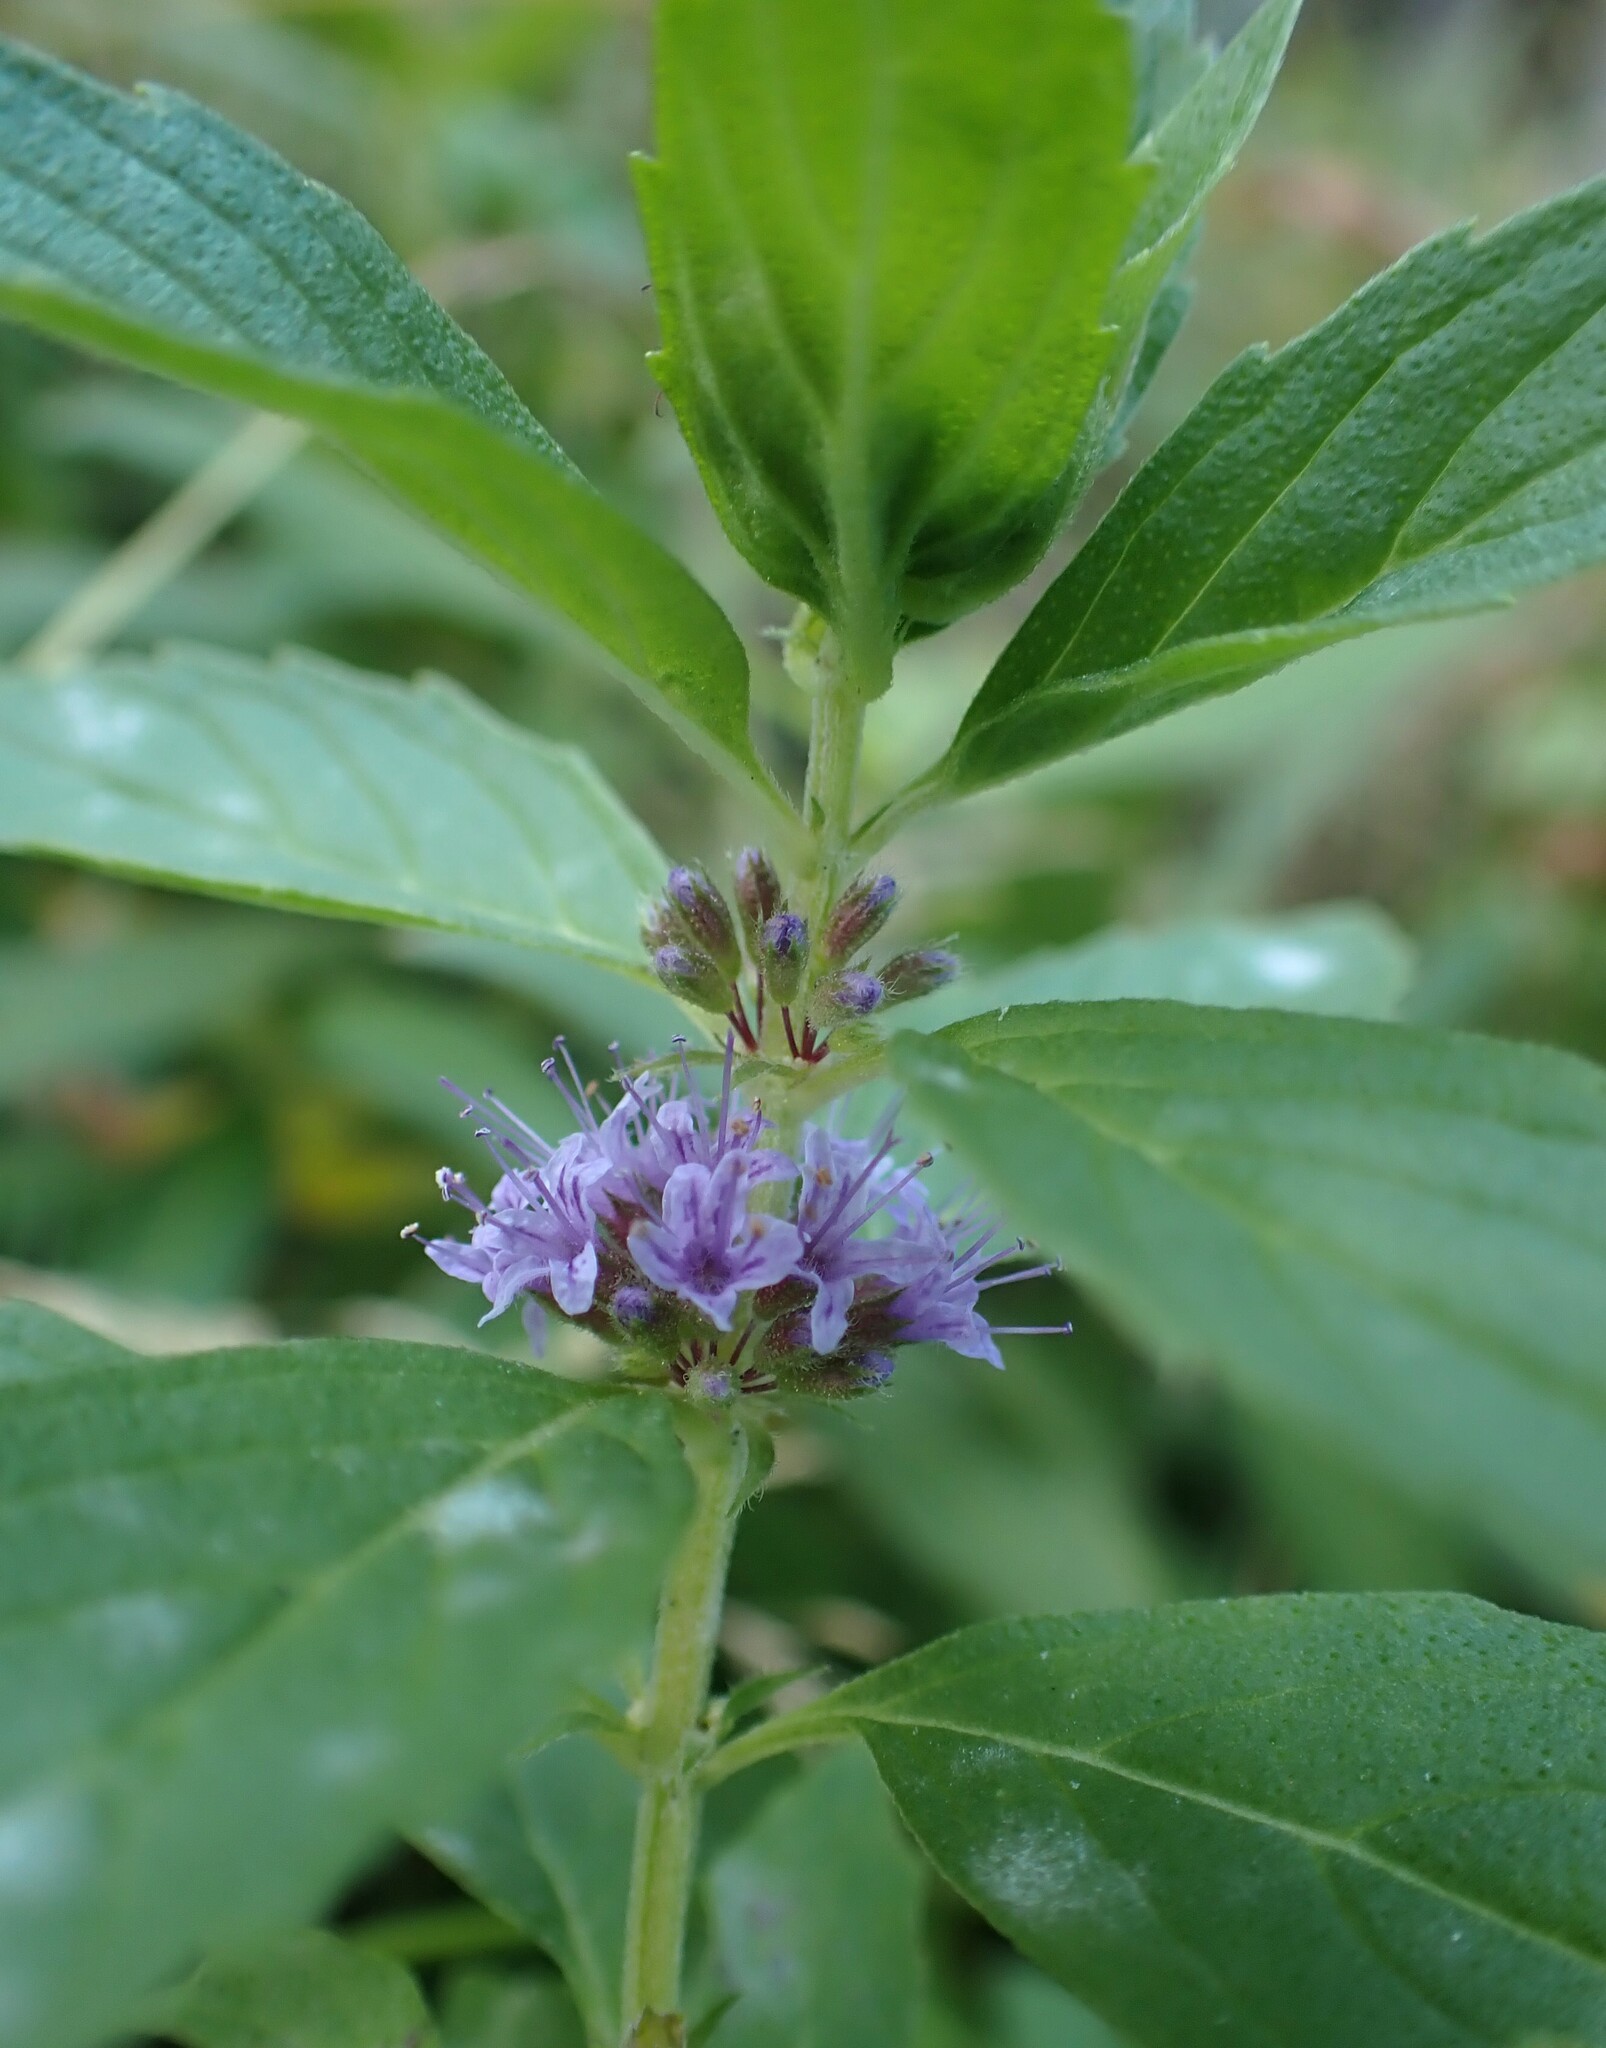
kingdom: Plantae
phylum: Tracheophyta
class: Magnoliopsida
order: Lamiales
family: Lamiaceae
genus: Mentha
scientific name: Mentha canadensis
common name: American corn mint
